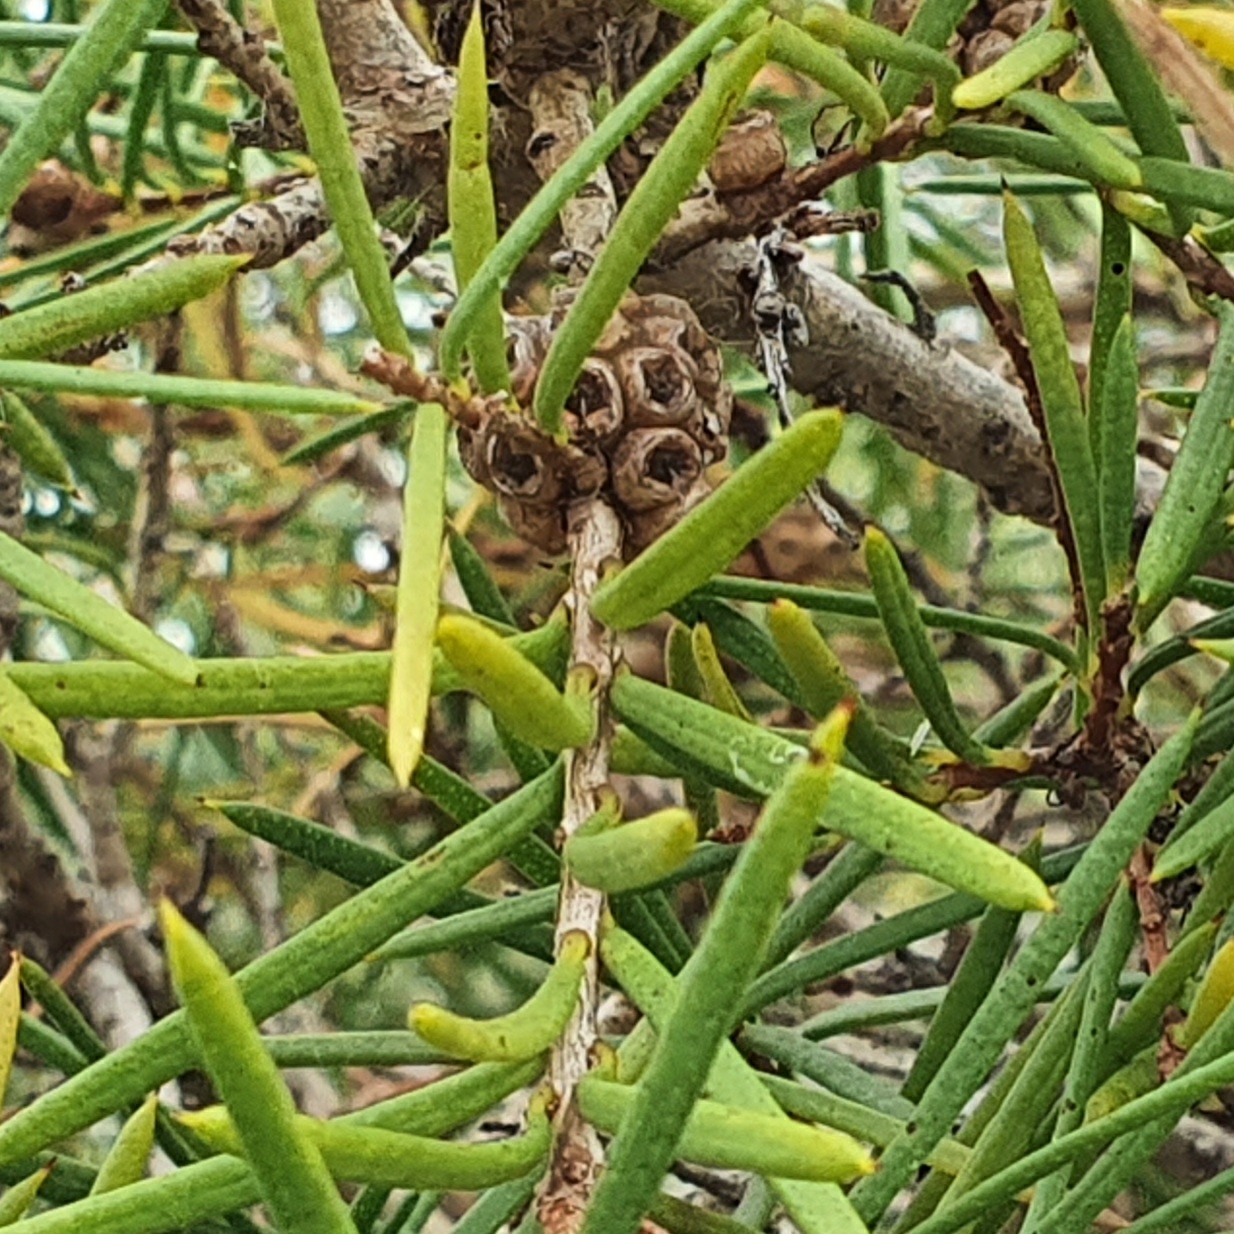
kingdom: Plantae
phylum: Tracheophyta
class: Magnoliopsida
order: Myrtales
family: Myrtaceae
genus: Melaleuca
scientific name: Melaleuca nodosa
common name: Prickly-leaf paperbark
